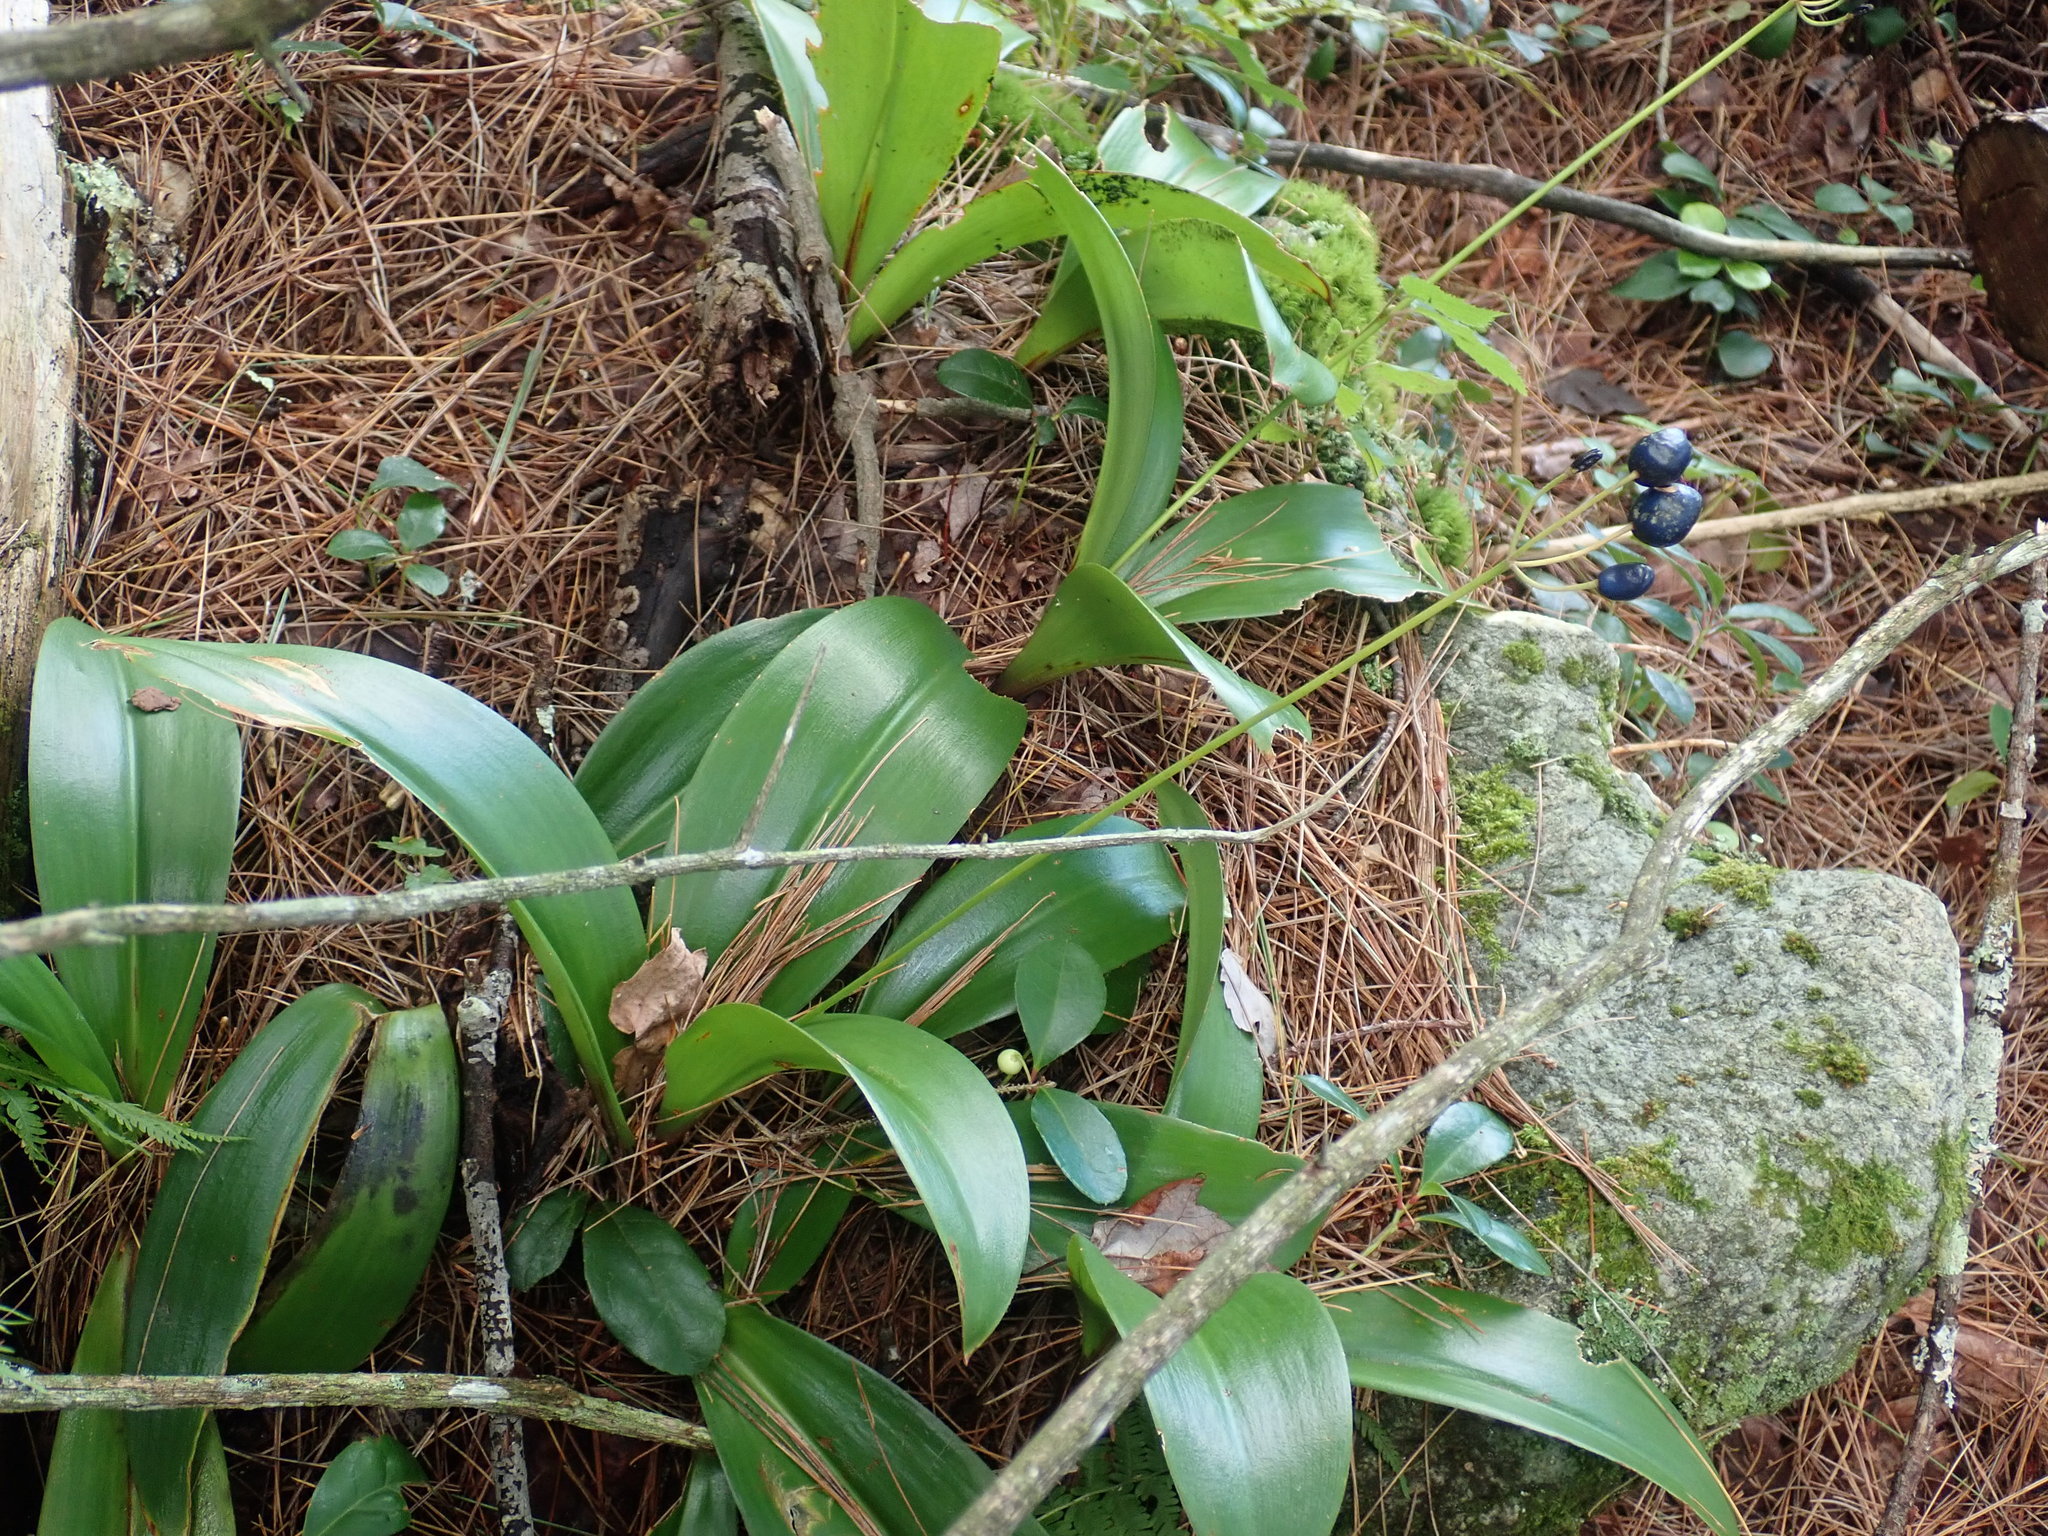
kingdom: Plantae
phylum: Tracheophyta
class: Liliopsida
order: Liliales
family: Liliaceae
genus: Clintonia
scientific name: Clintonia borealis
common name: Yellow clintonia
